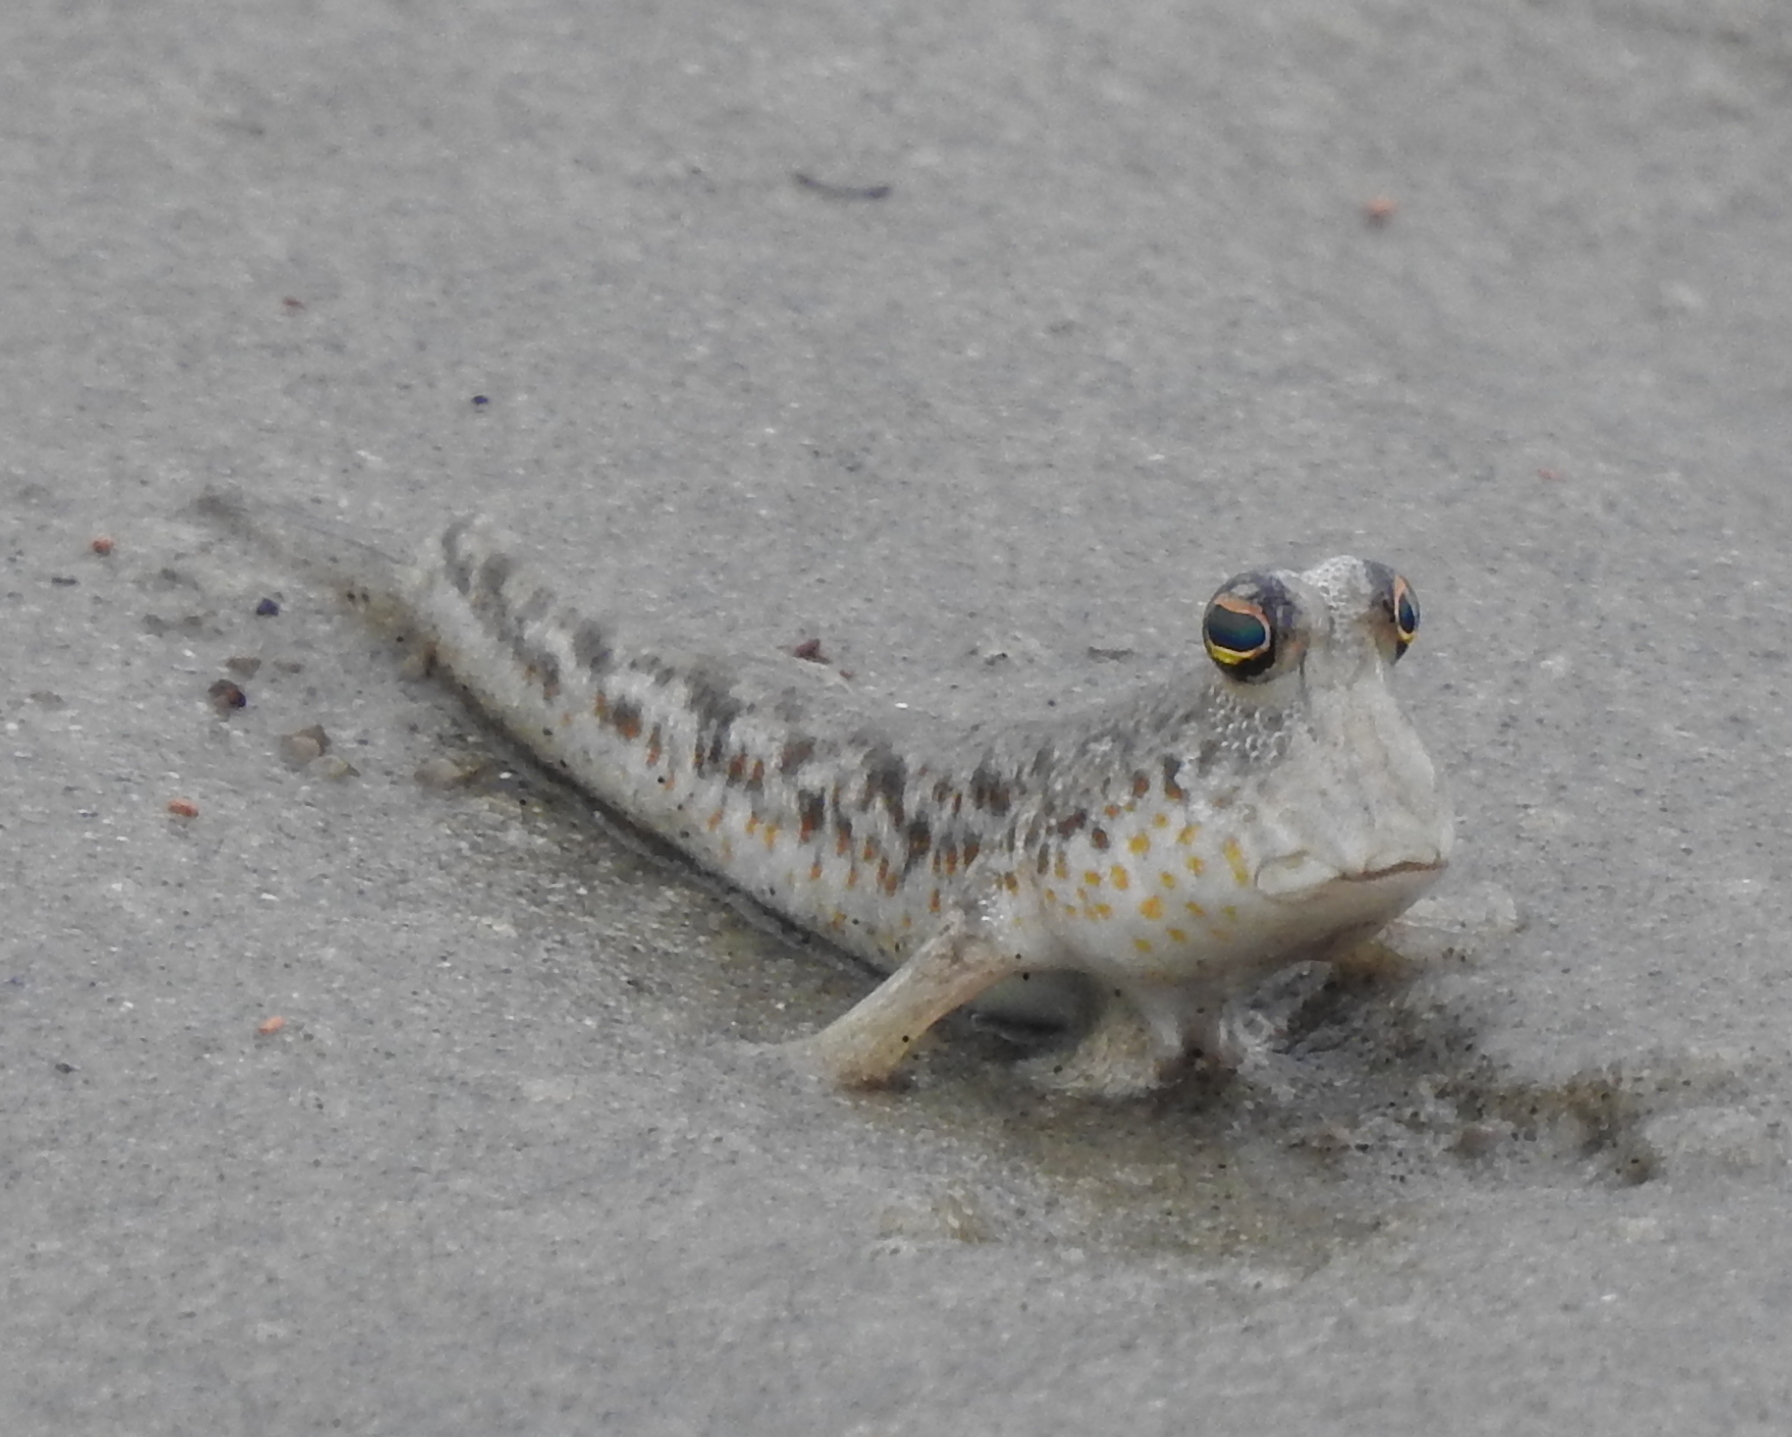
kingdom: Animalia
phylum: Chordata
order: Perciformes
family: Gobiidae
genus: Periophthalmus
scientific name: Periophthalmus chrysospilos
